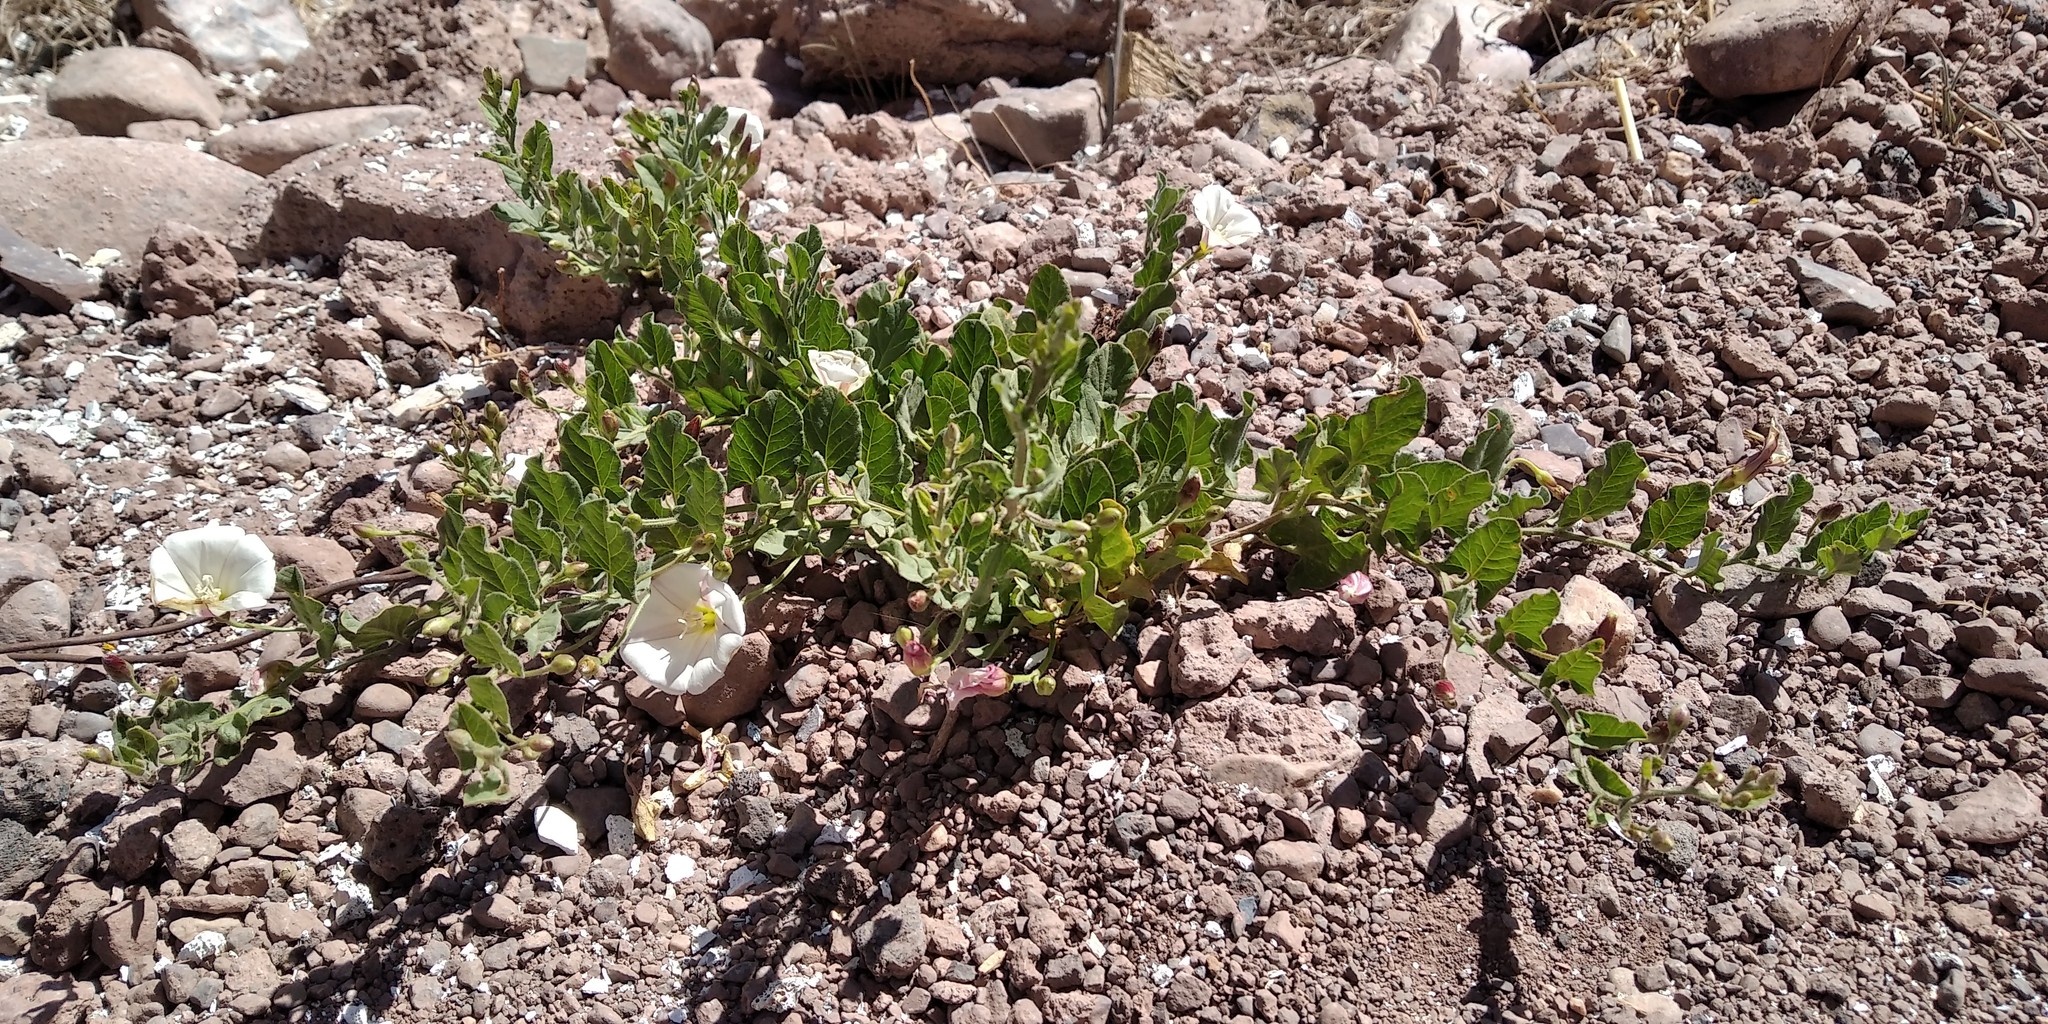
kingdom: Plantae
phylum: Tracheophyta
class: Magnoliopsida
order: Solanales
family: Convolvulaceae
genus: Convolvulus
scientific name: Convolvulus arvensis
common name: Field bindweed
